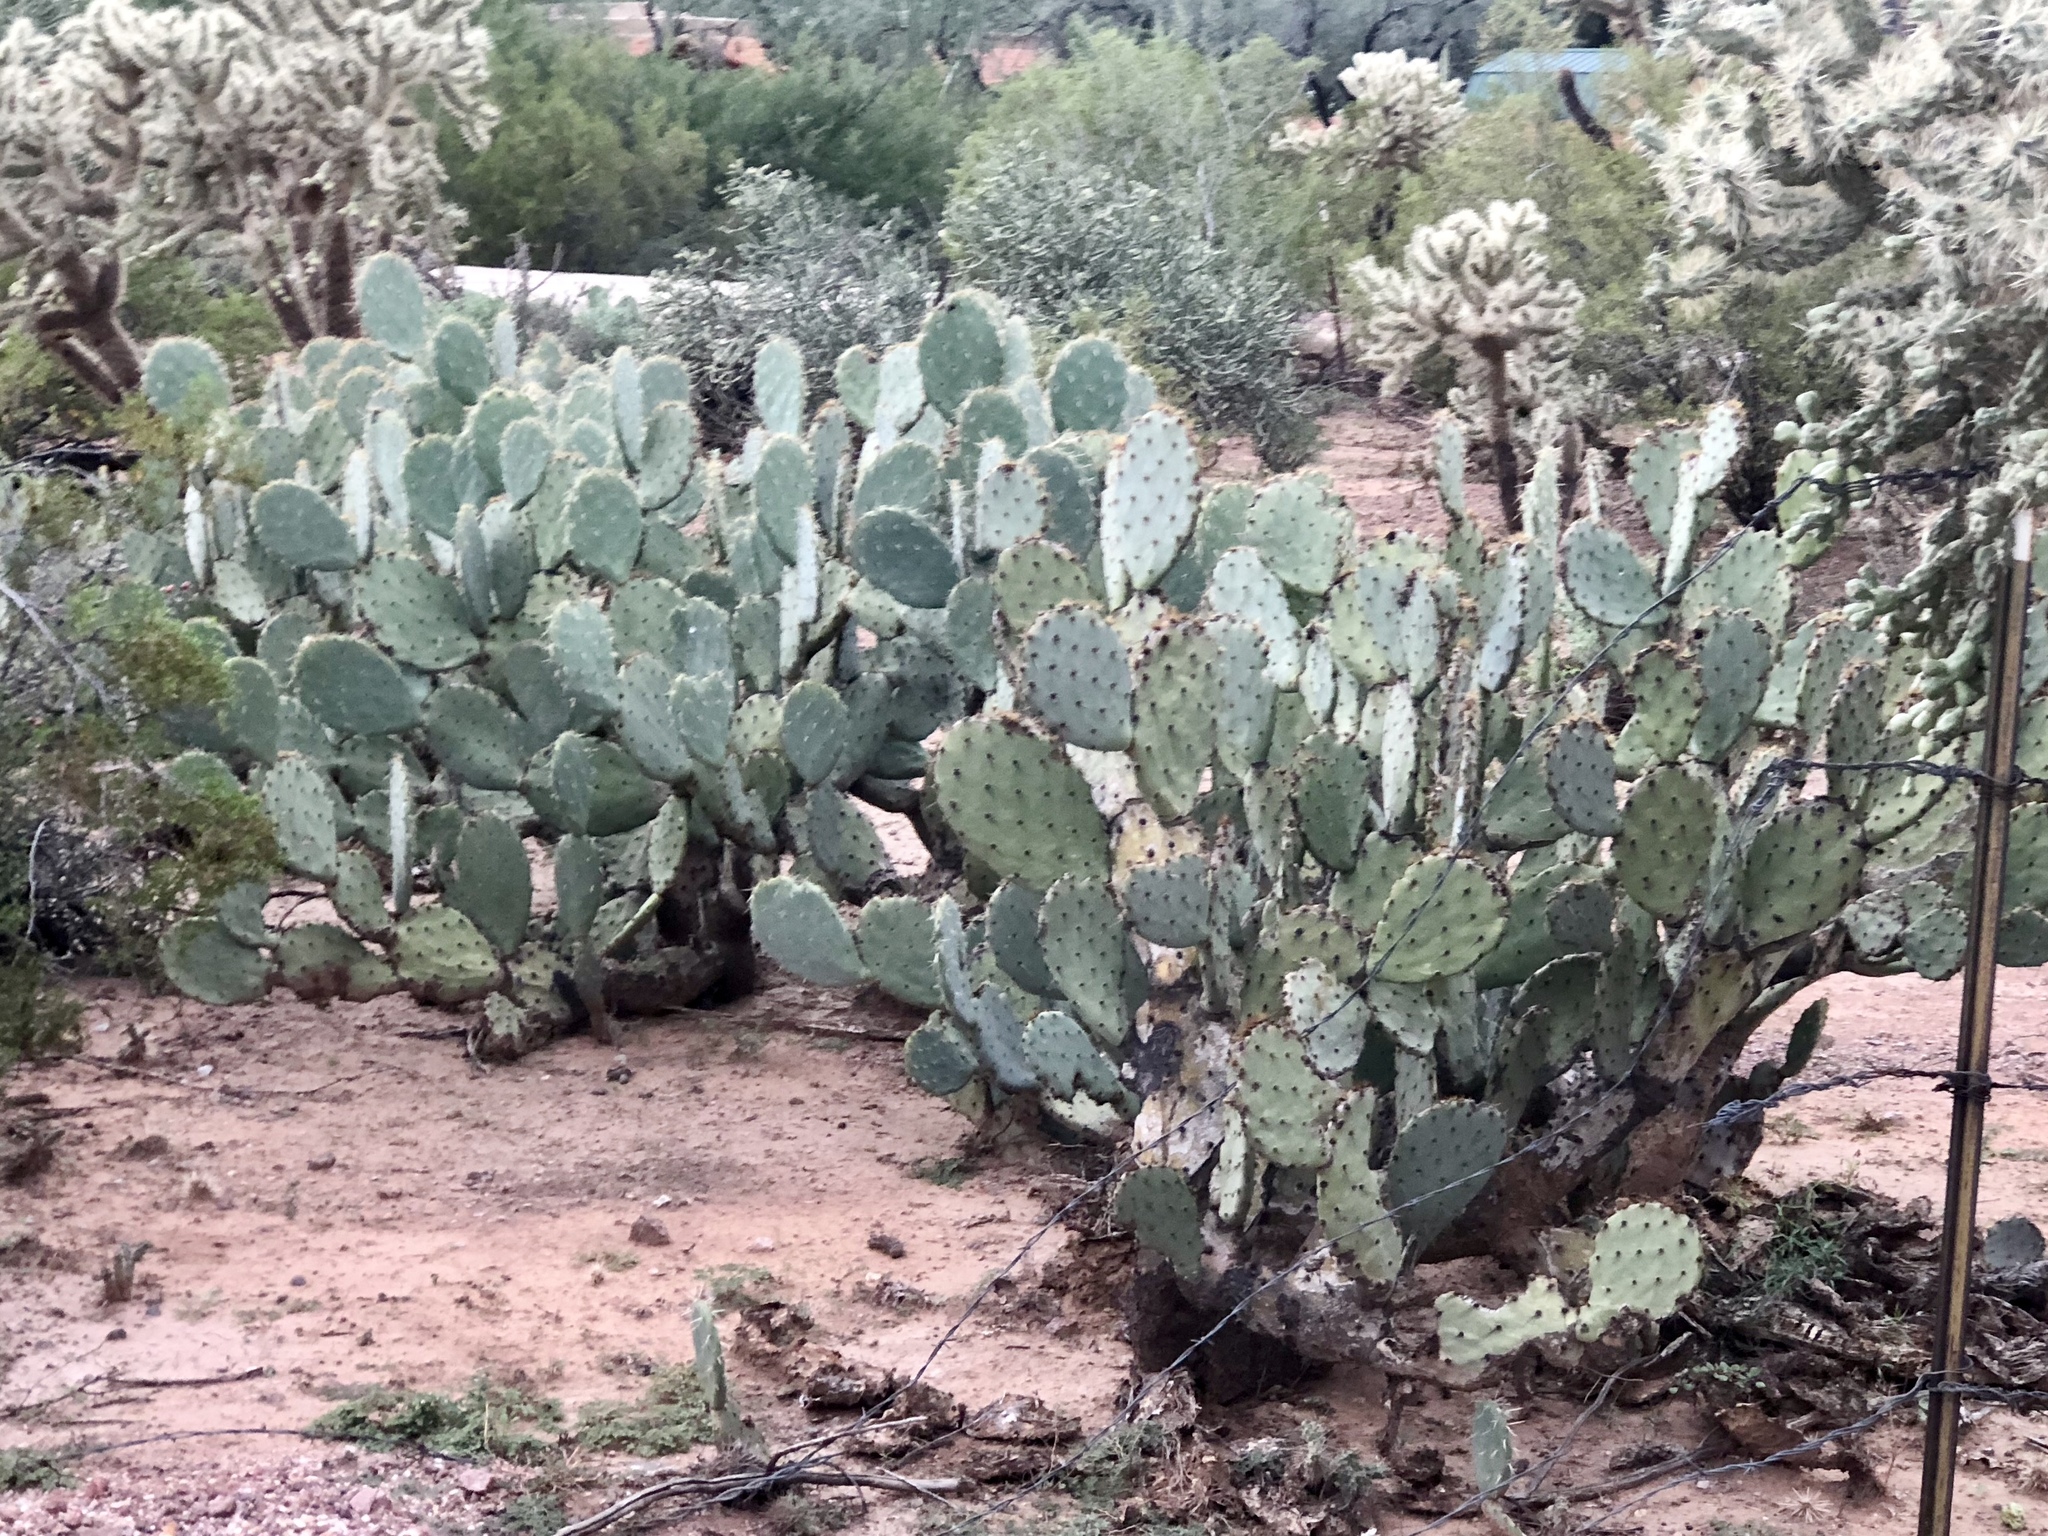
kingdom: Plantae
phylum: Tracheophyta
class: Magnoliopsida
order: Caryophyllales
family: Cactaceae
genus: Opuntia
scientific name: Opuntia engelmannii
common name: Cactus-apple
